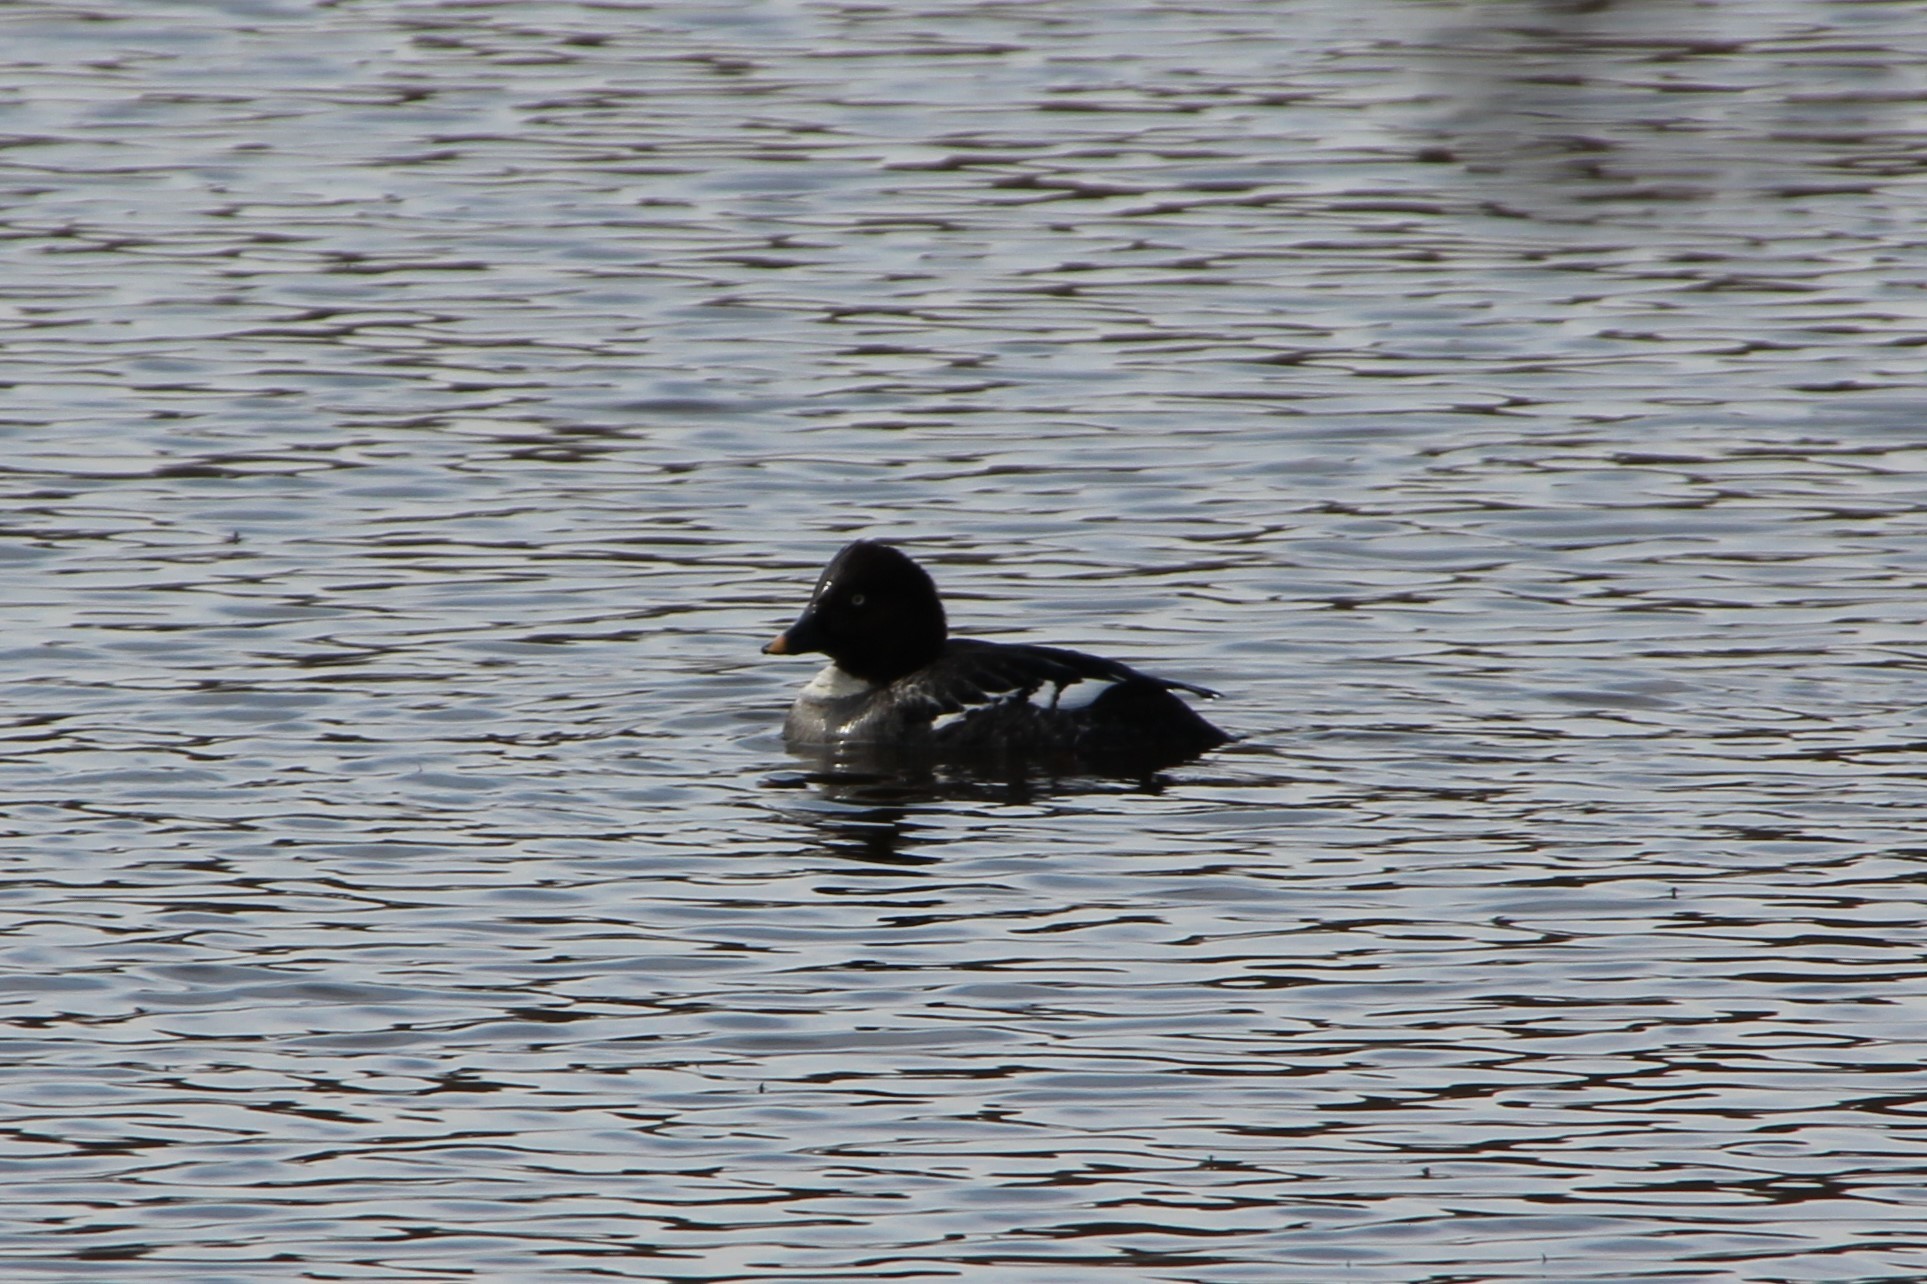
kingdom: Animalia
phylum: Chordata
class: Aves
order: Anseriformes
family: Anatidae
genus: Bucephala
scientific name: Bucephala clangula
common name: Common goldeneye
